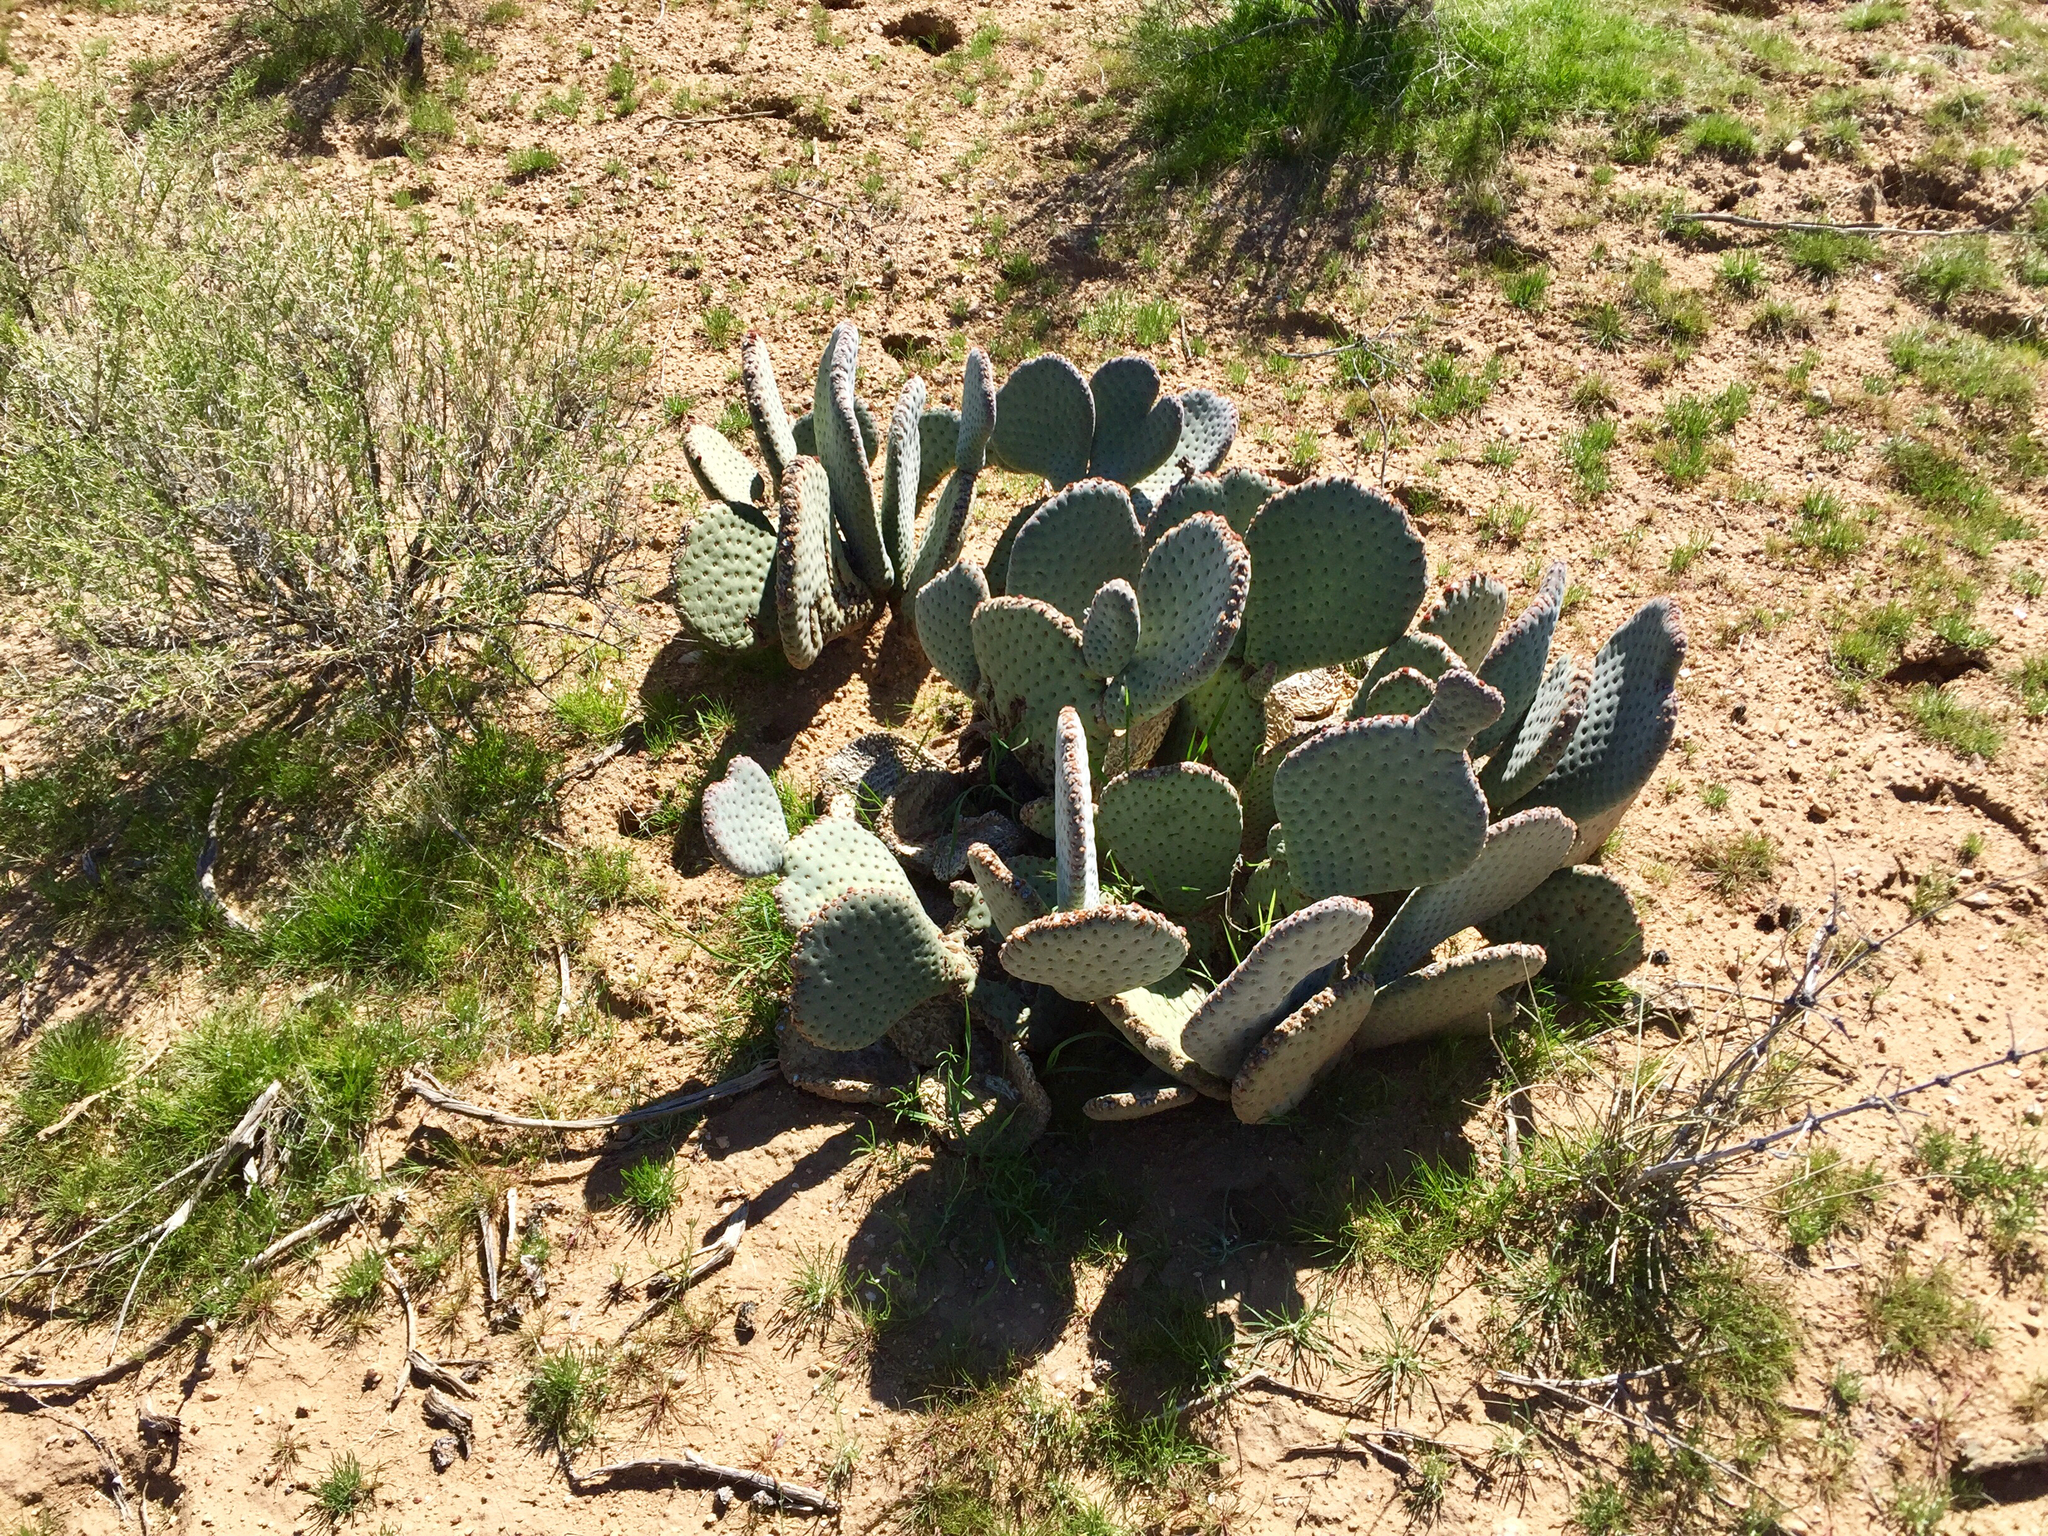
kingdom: Plantae
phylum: Tracheophyta
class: Magnoliopsida
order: Caryophyllales
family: Cactaceae
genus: Opuntia
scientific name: Opuntia basilaris
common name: Beavertail prickly-pear
